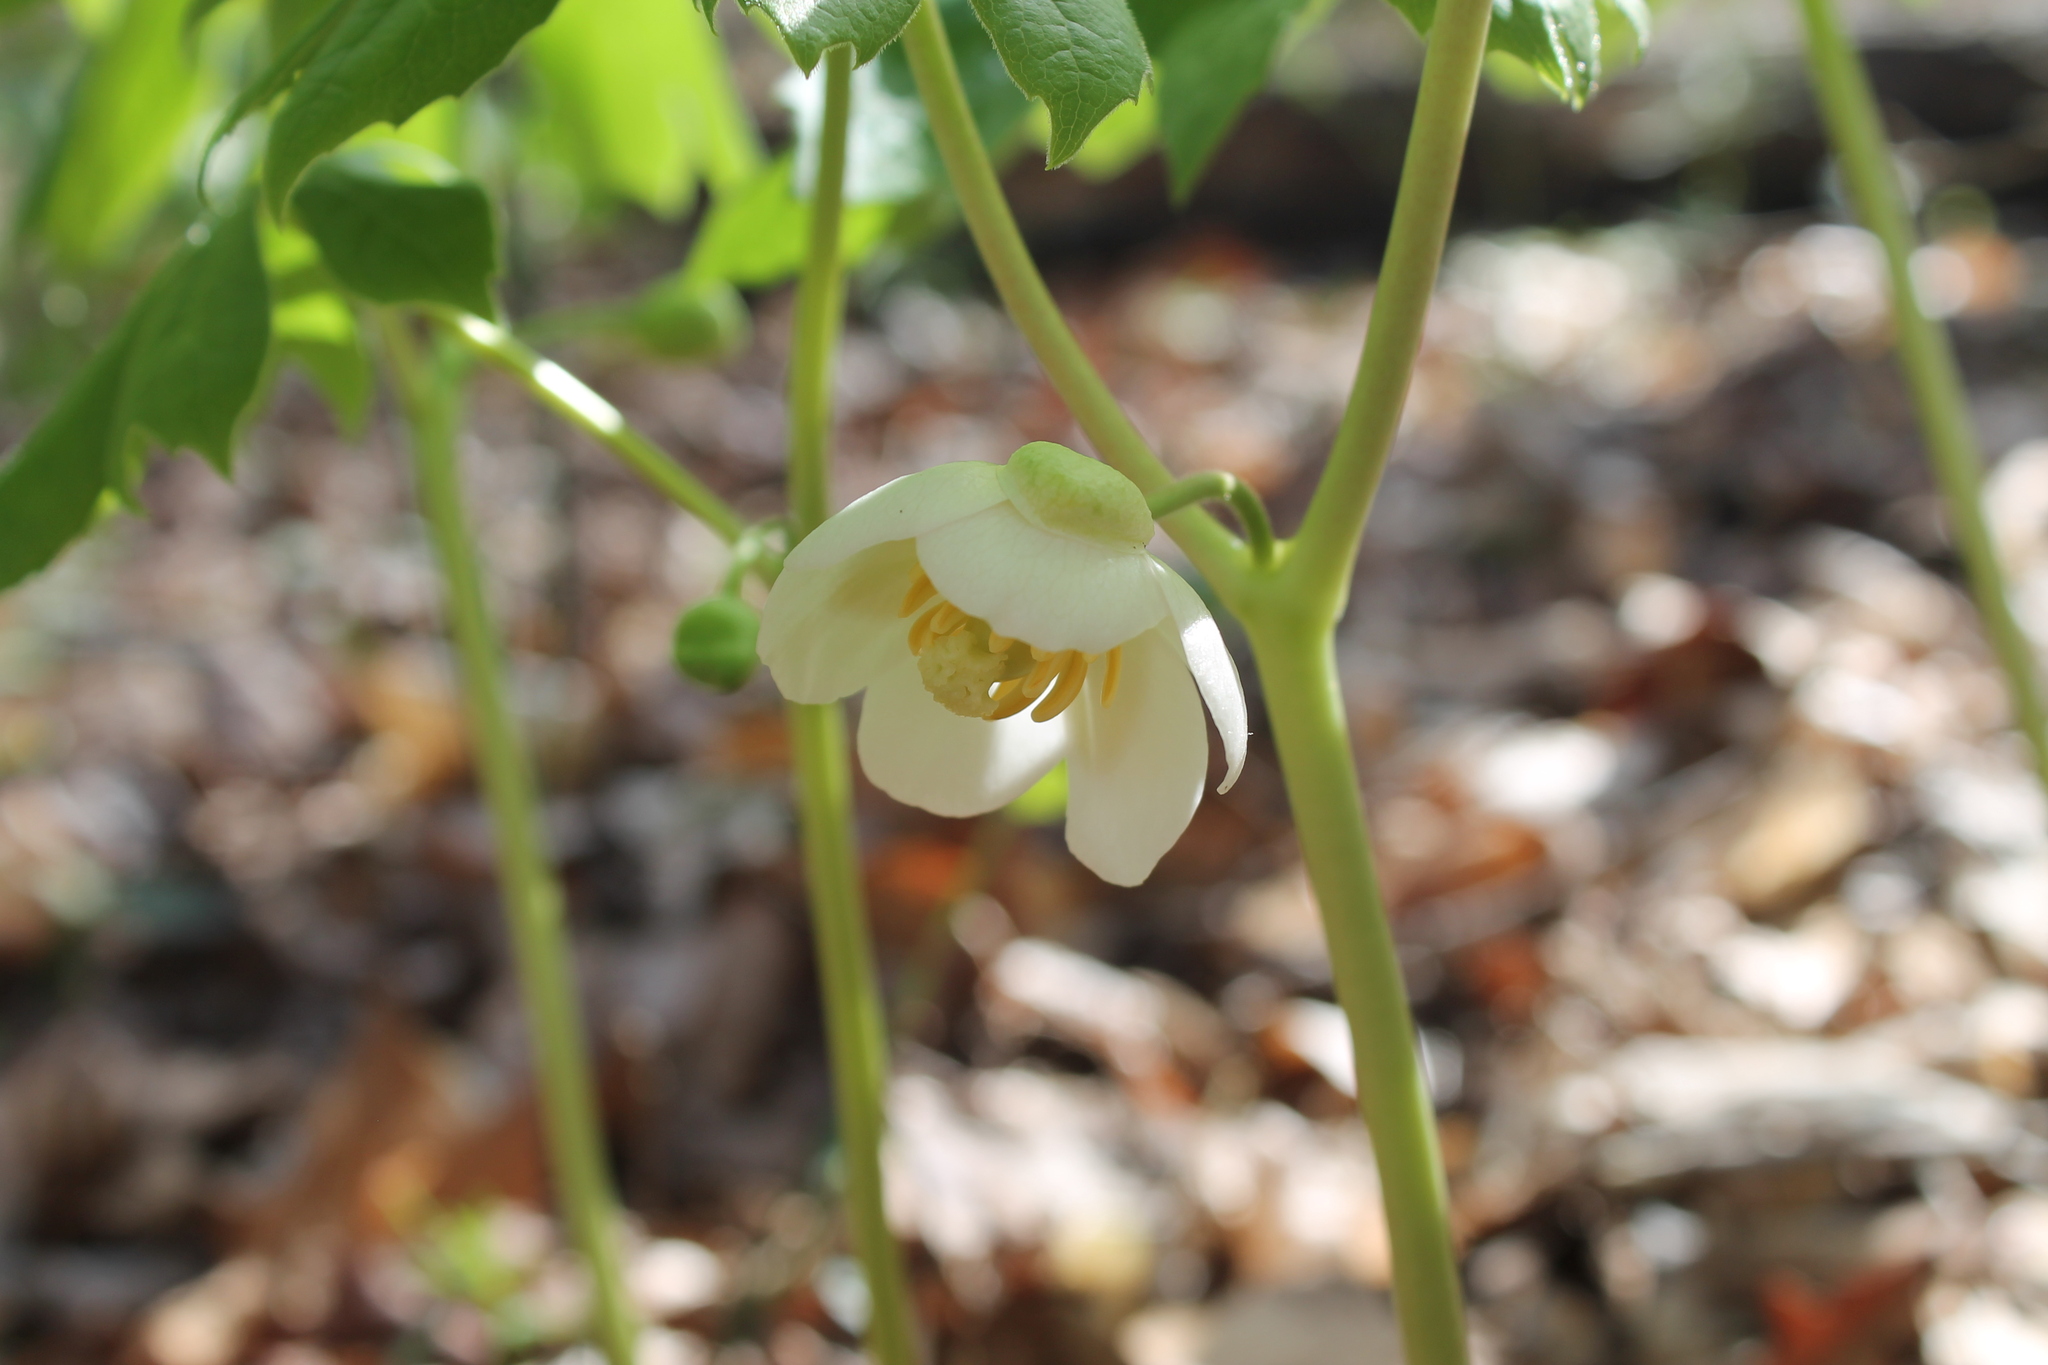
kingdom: Plantae
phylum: Tracheophyta
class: Magnoliopsida
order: Ranunculales
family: Berberidaceae
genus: Podophyllum
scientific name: Podophyllum peltatum
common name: Wild mandrake
